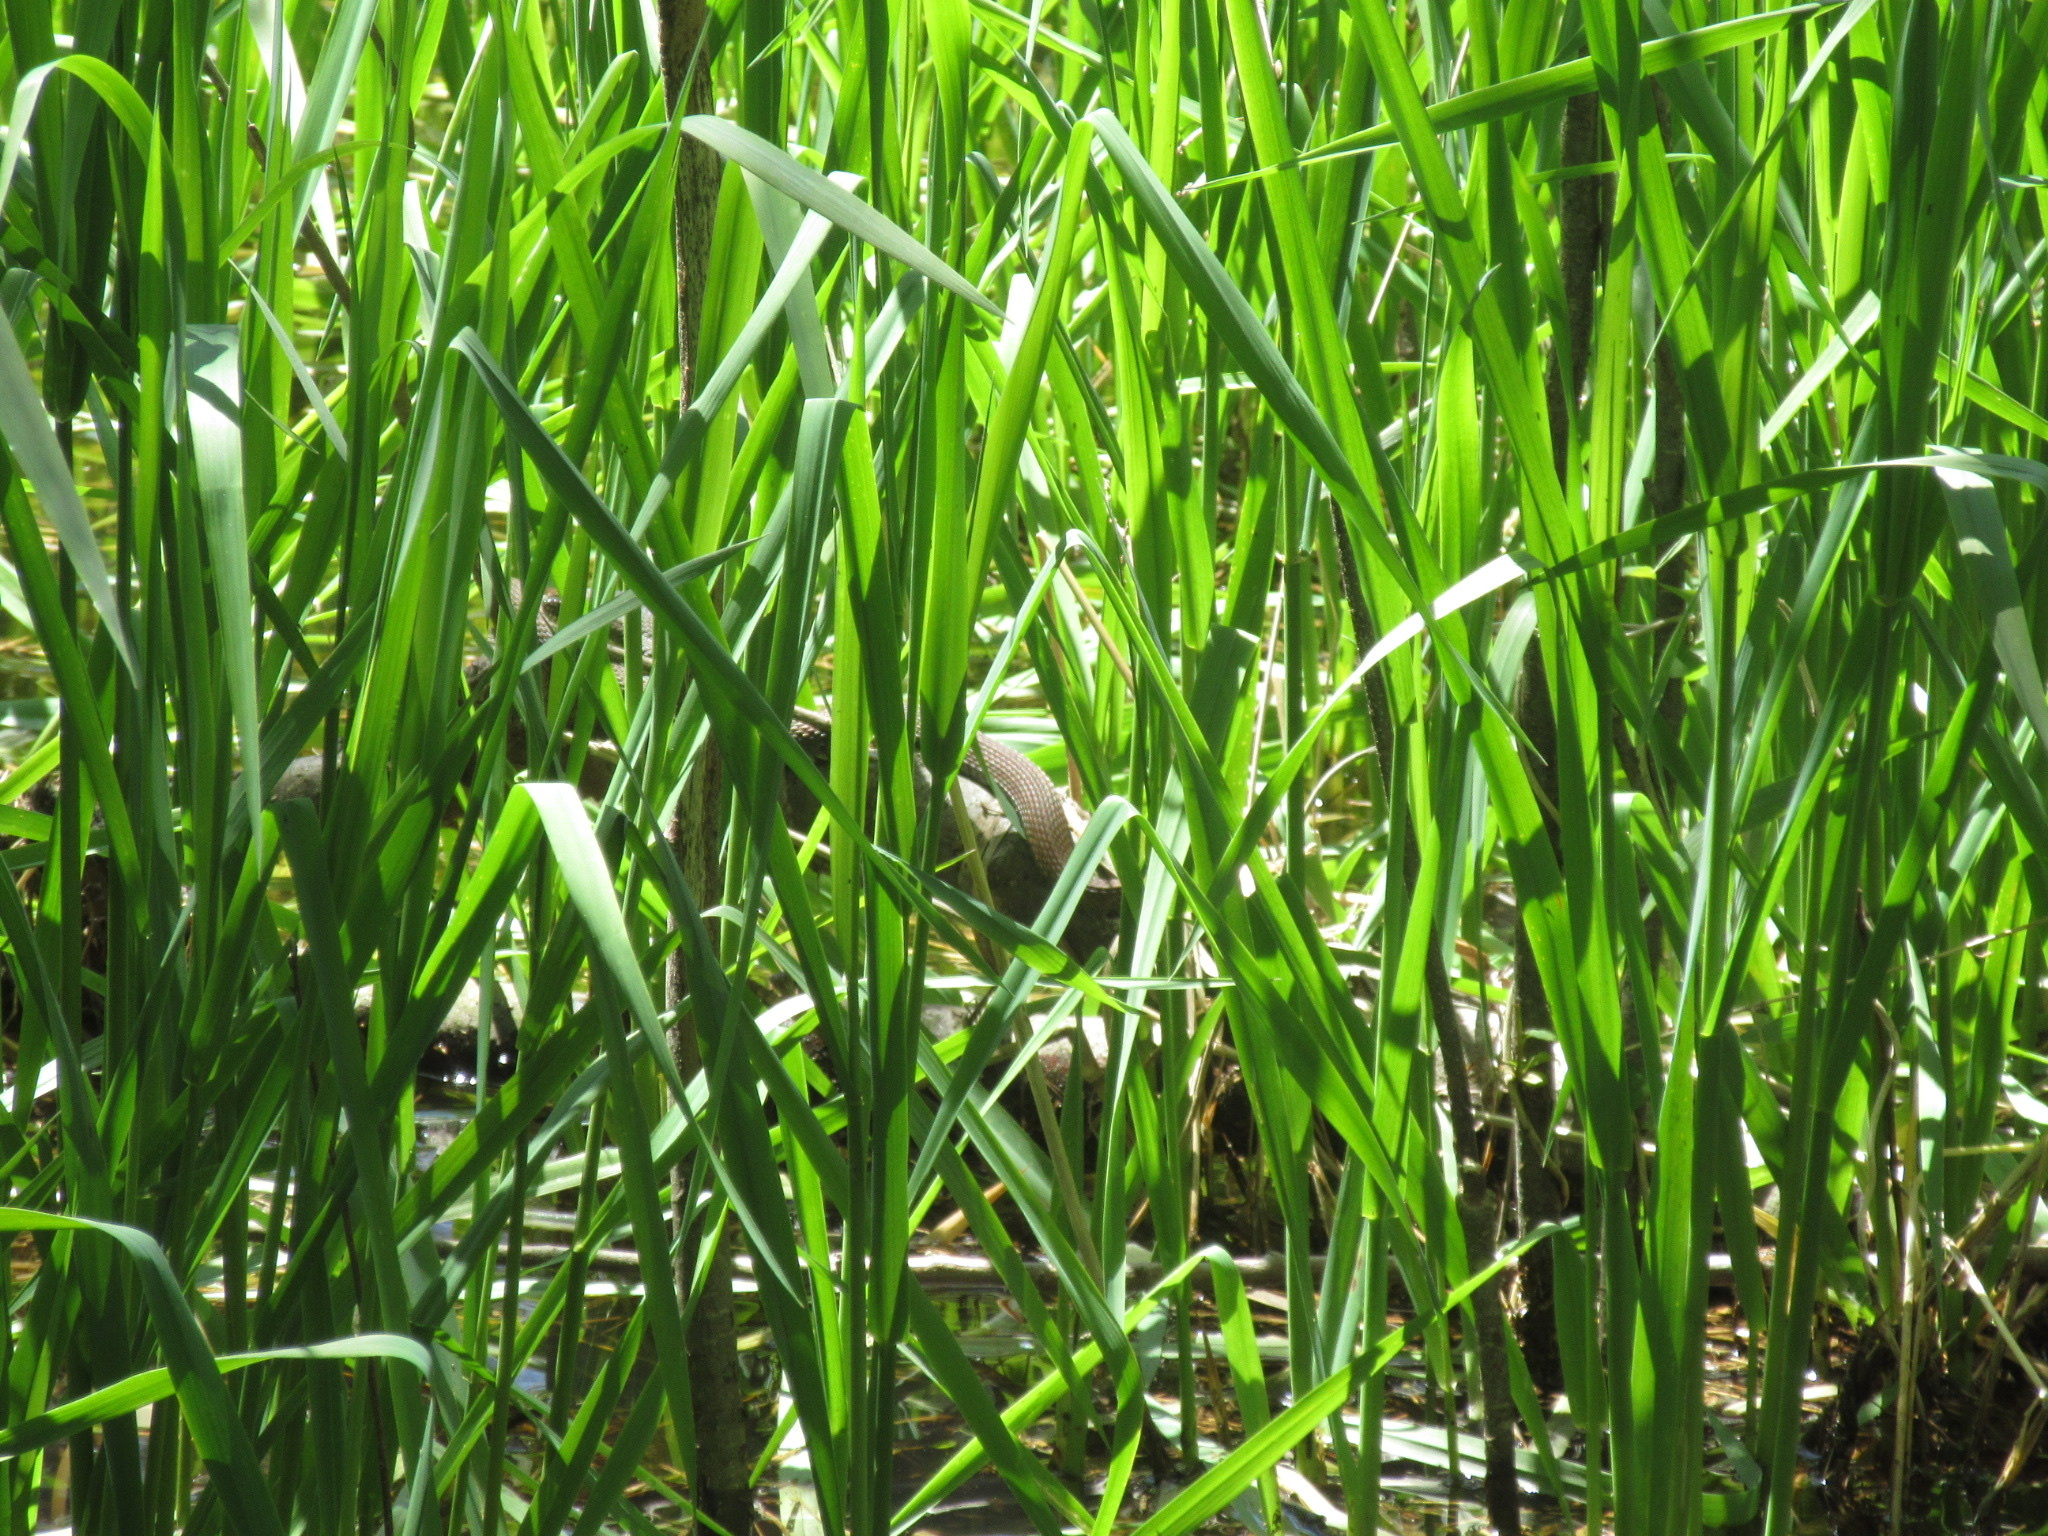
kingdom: Animalia
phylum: Chordata
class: Squamata
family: Colubridae
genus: Nerodia
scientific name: Nerodia sipedon
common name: Northern water snake
